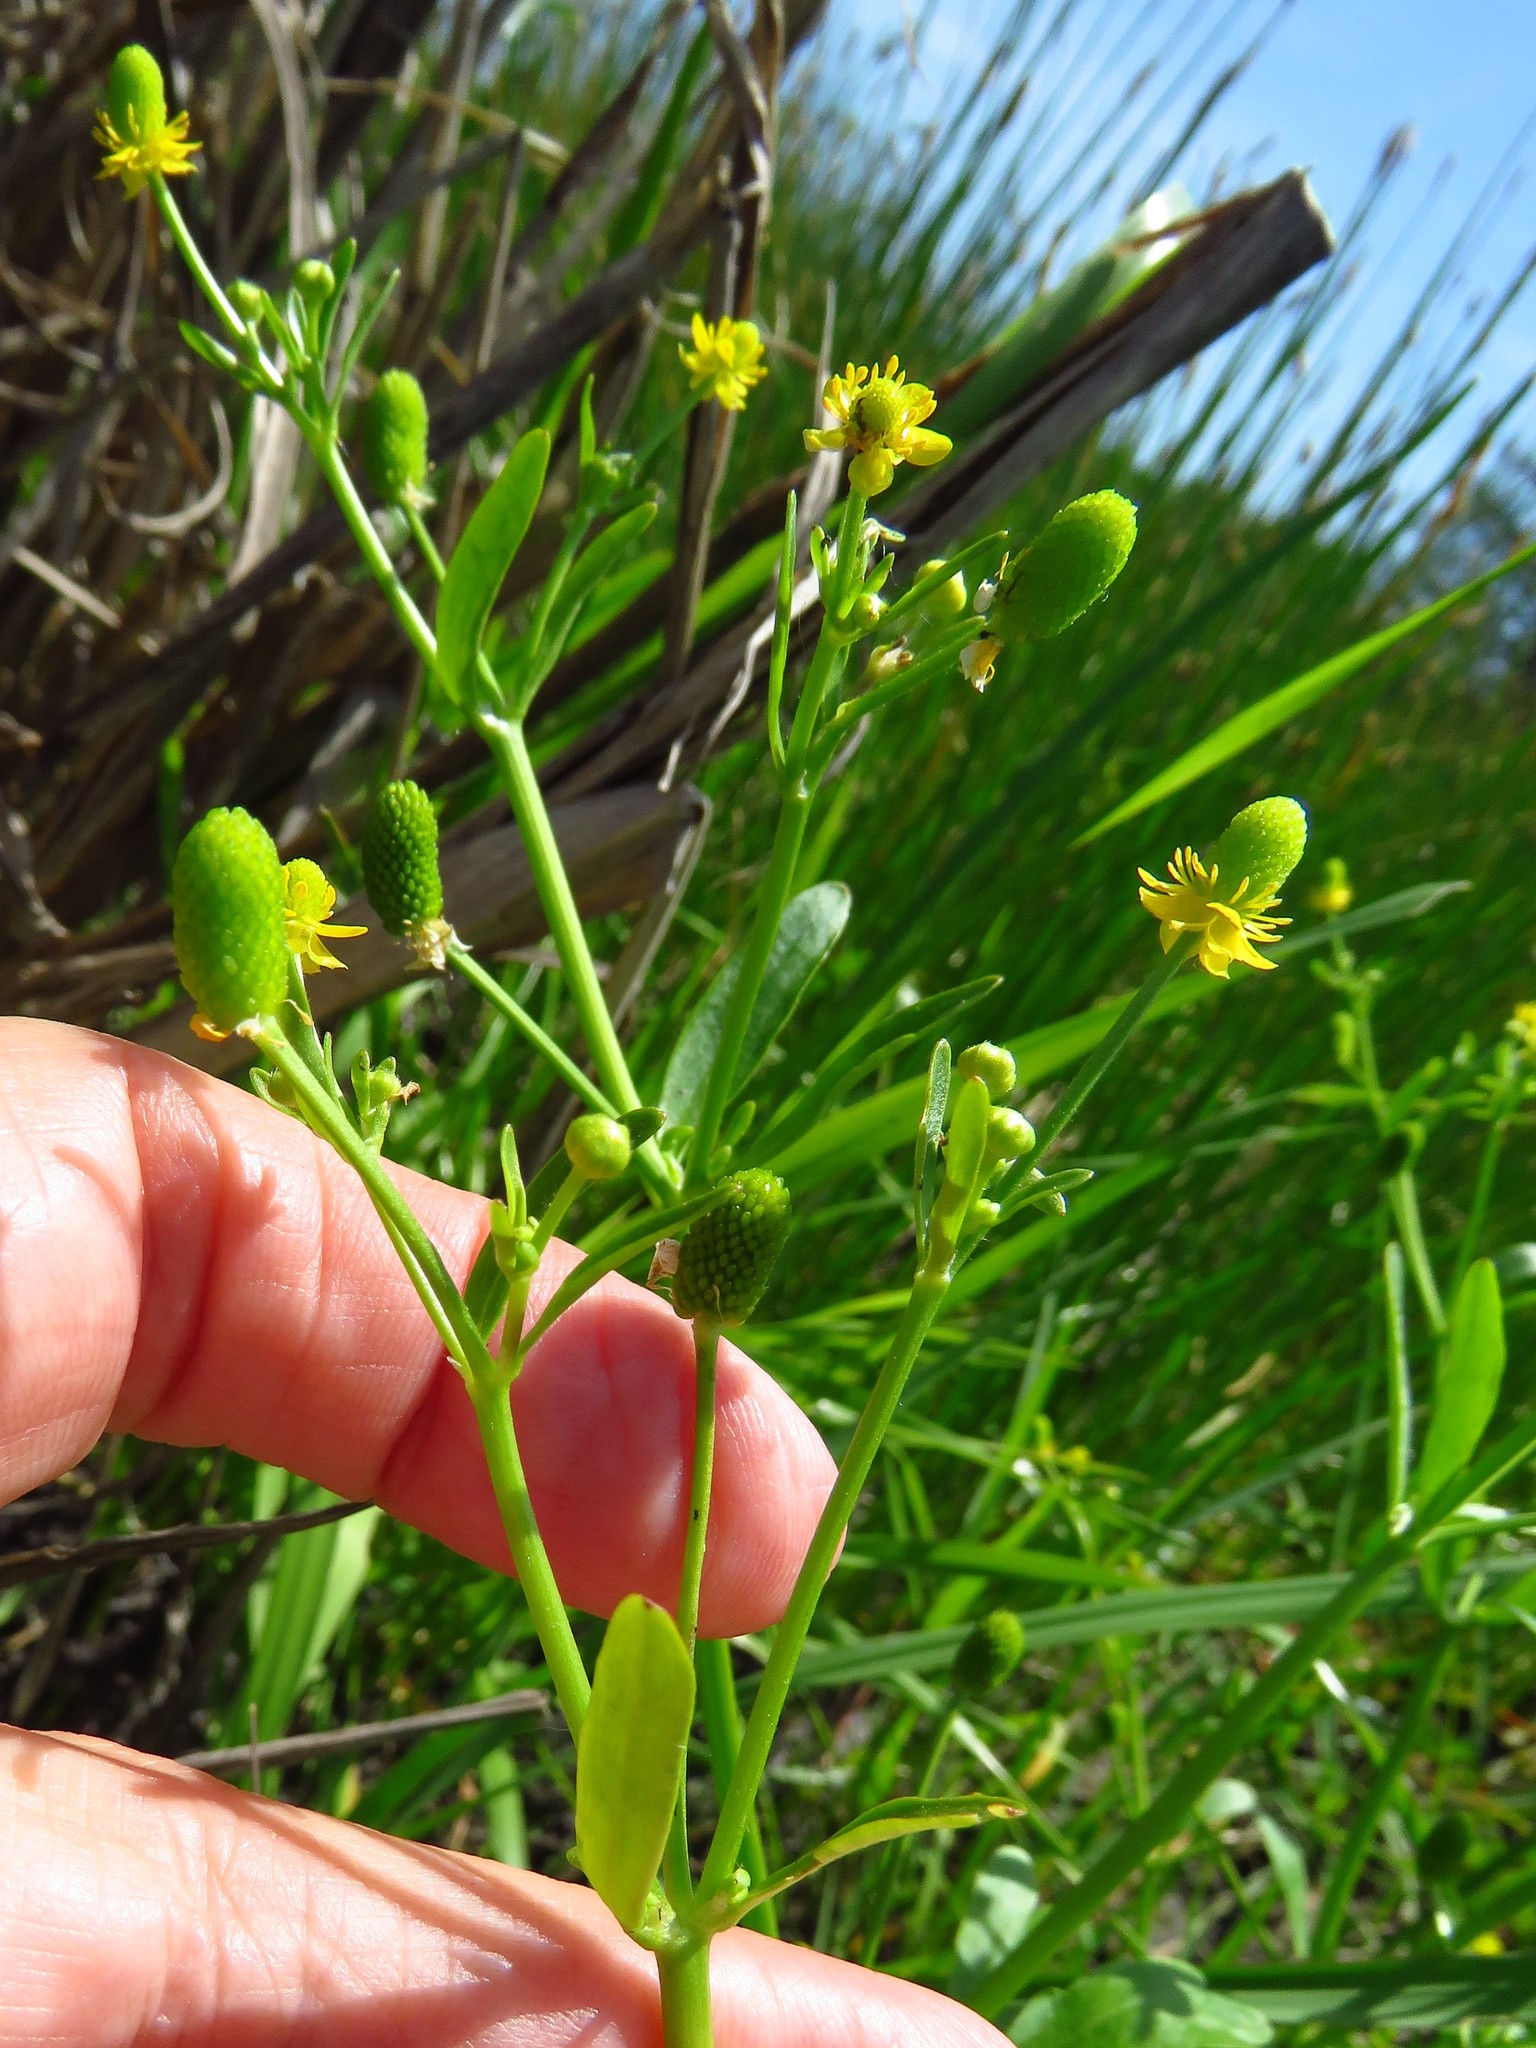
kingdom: Plantae
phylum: Tracheophyta
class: Magnoliopsida
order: Ranunculales
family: Ranunculaceae
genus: Ranunculus
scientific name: Ranunculus sceleratus
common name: Celery-leaved buttercup
